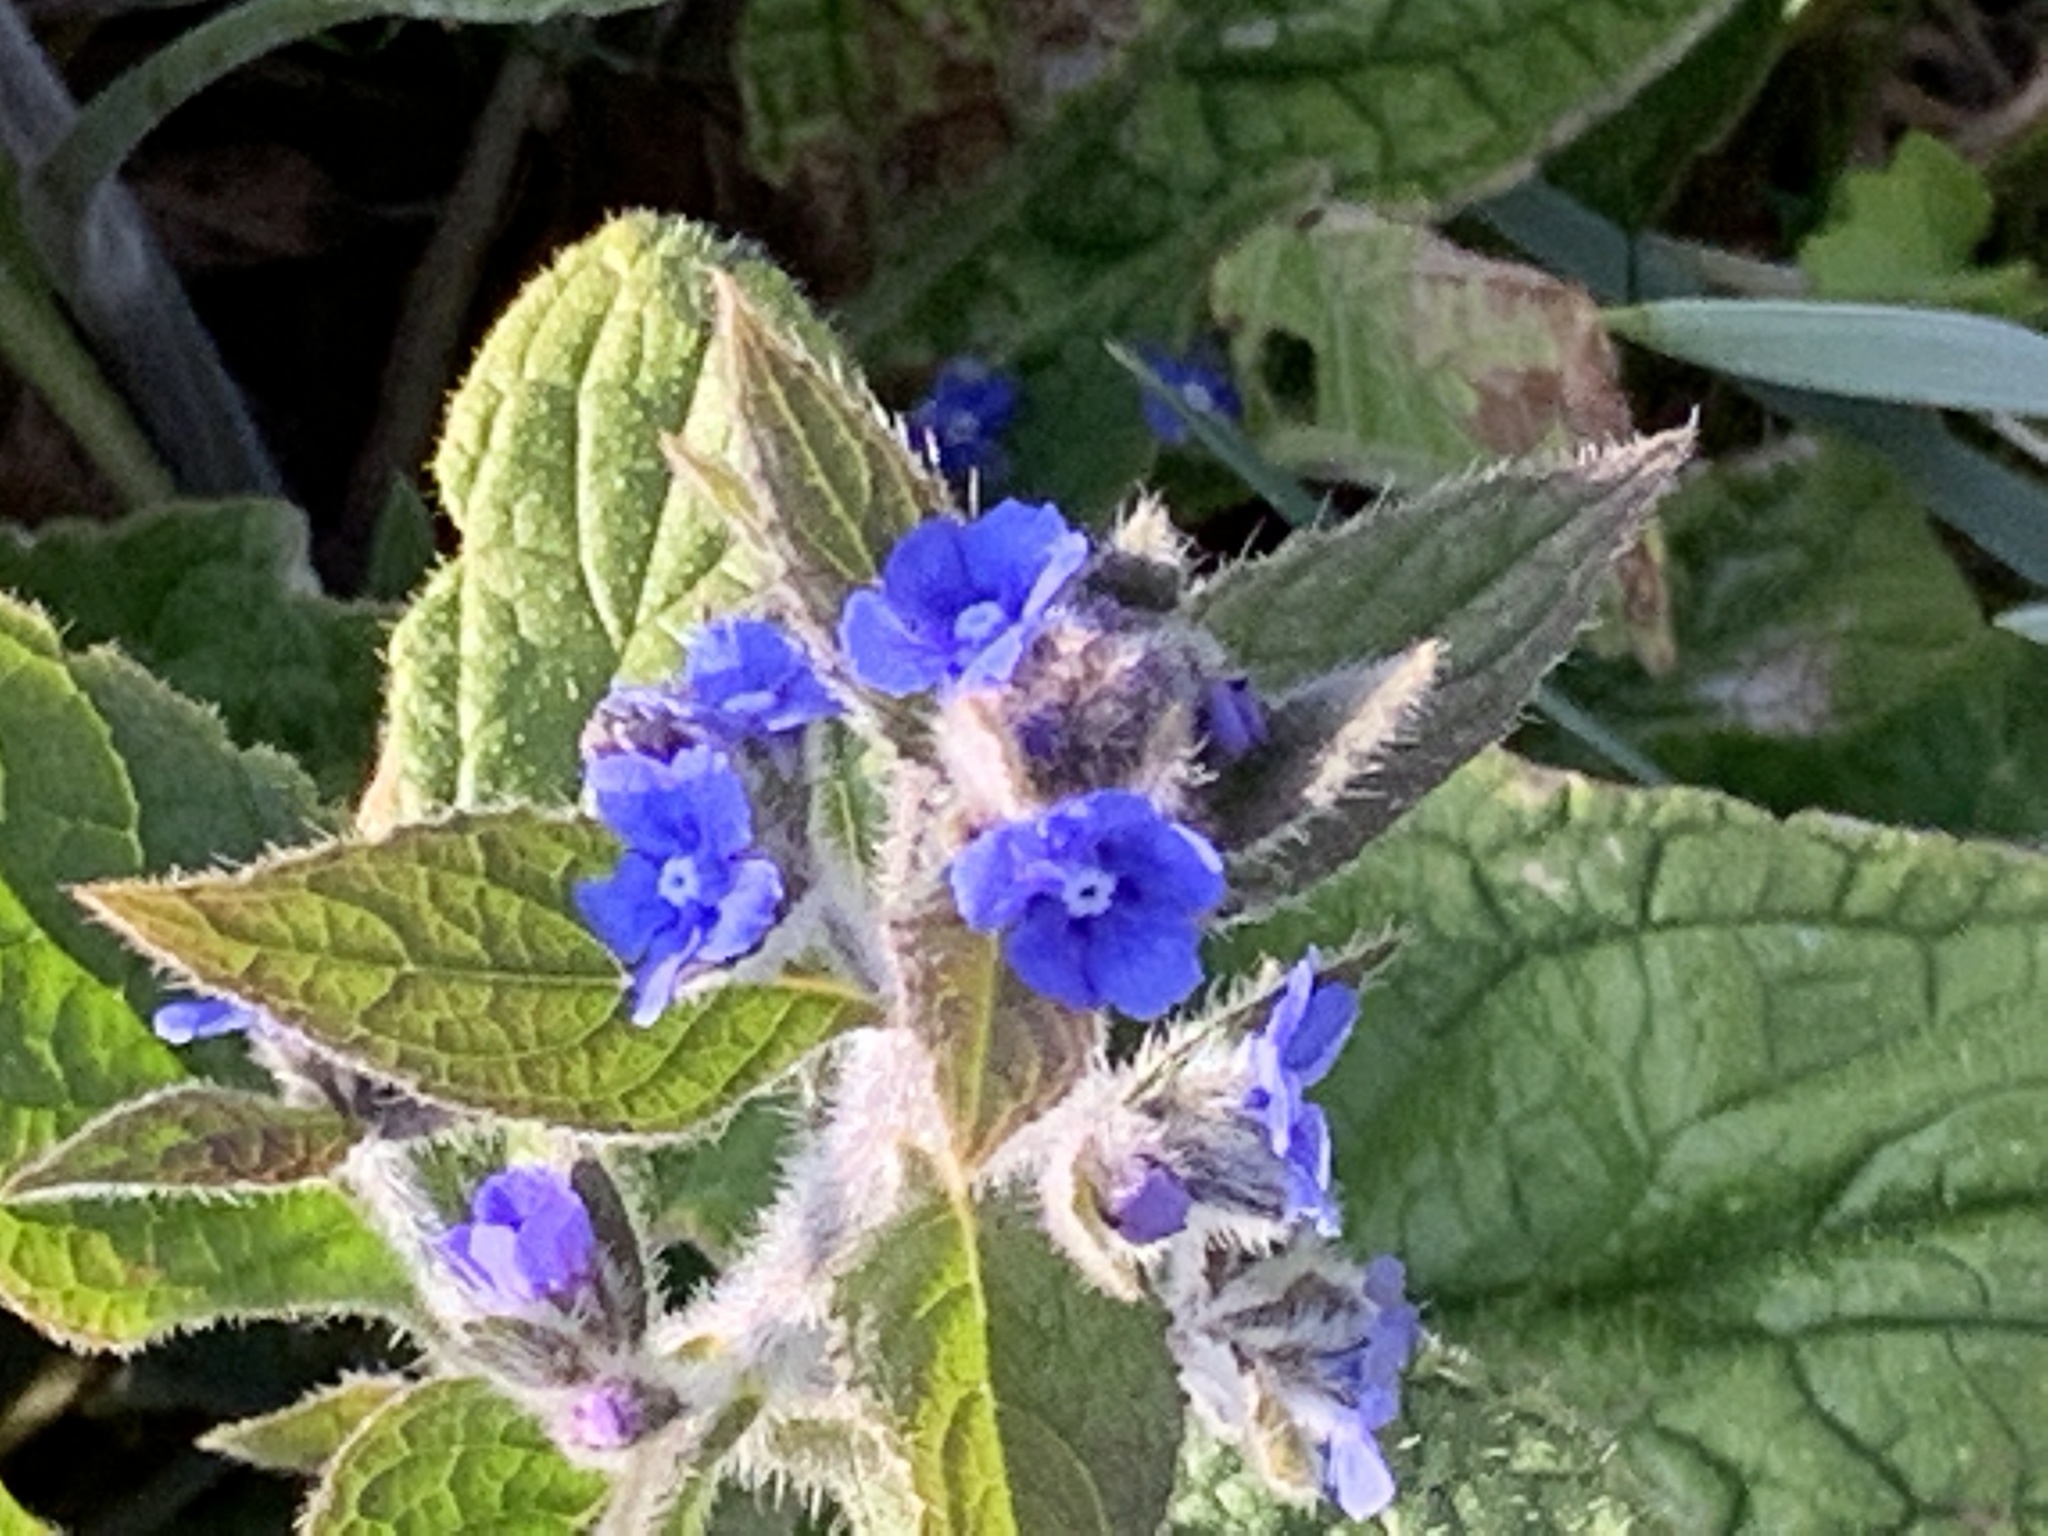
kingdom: Plantae
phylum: Tracheophyta
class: Magnoliopsida
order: Boraginales
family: Boraginaceae
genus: Pentaglottis
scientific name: Pentaglottis sempervirens
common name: Green alkanet
